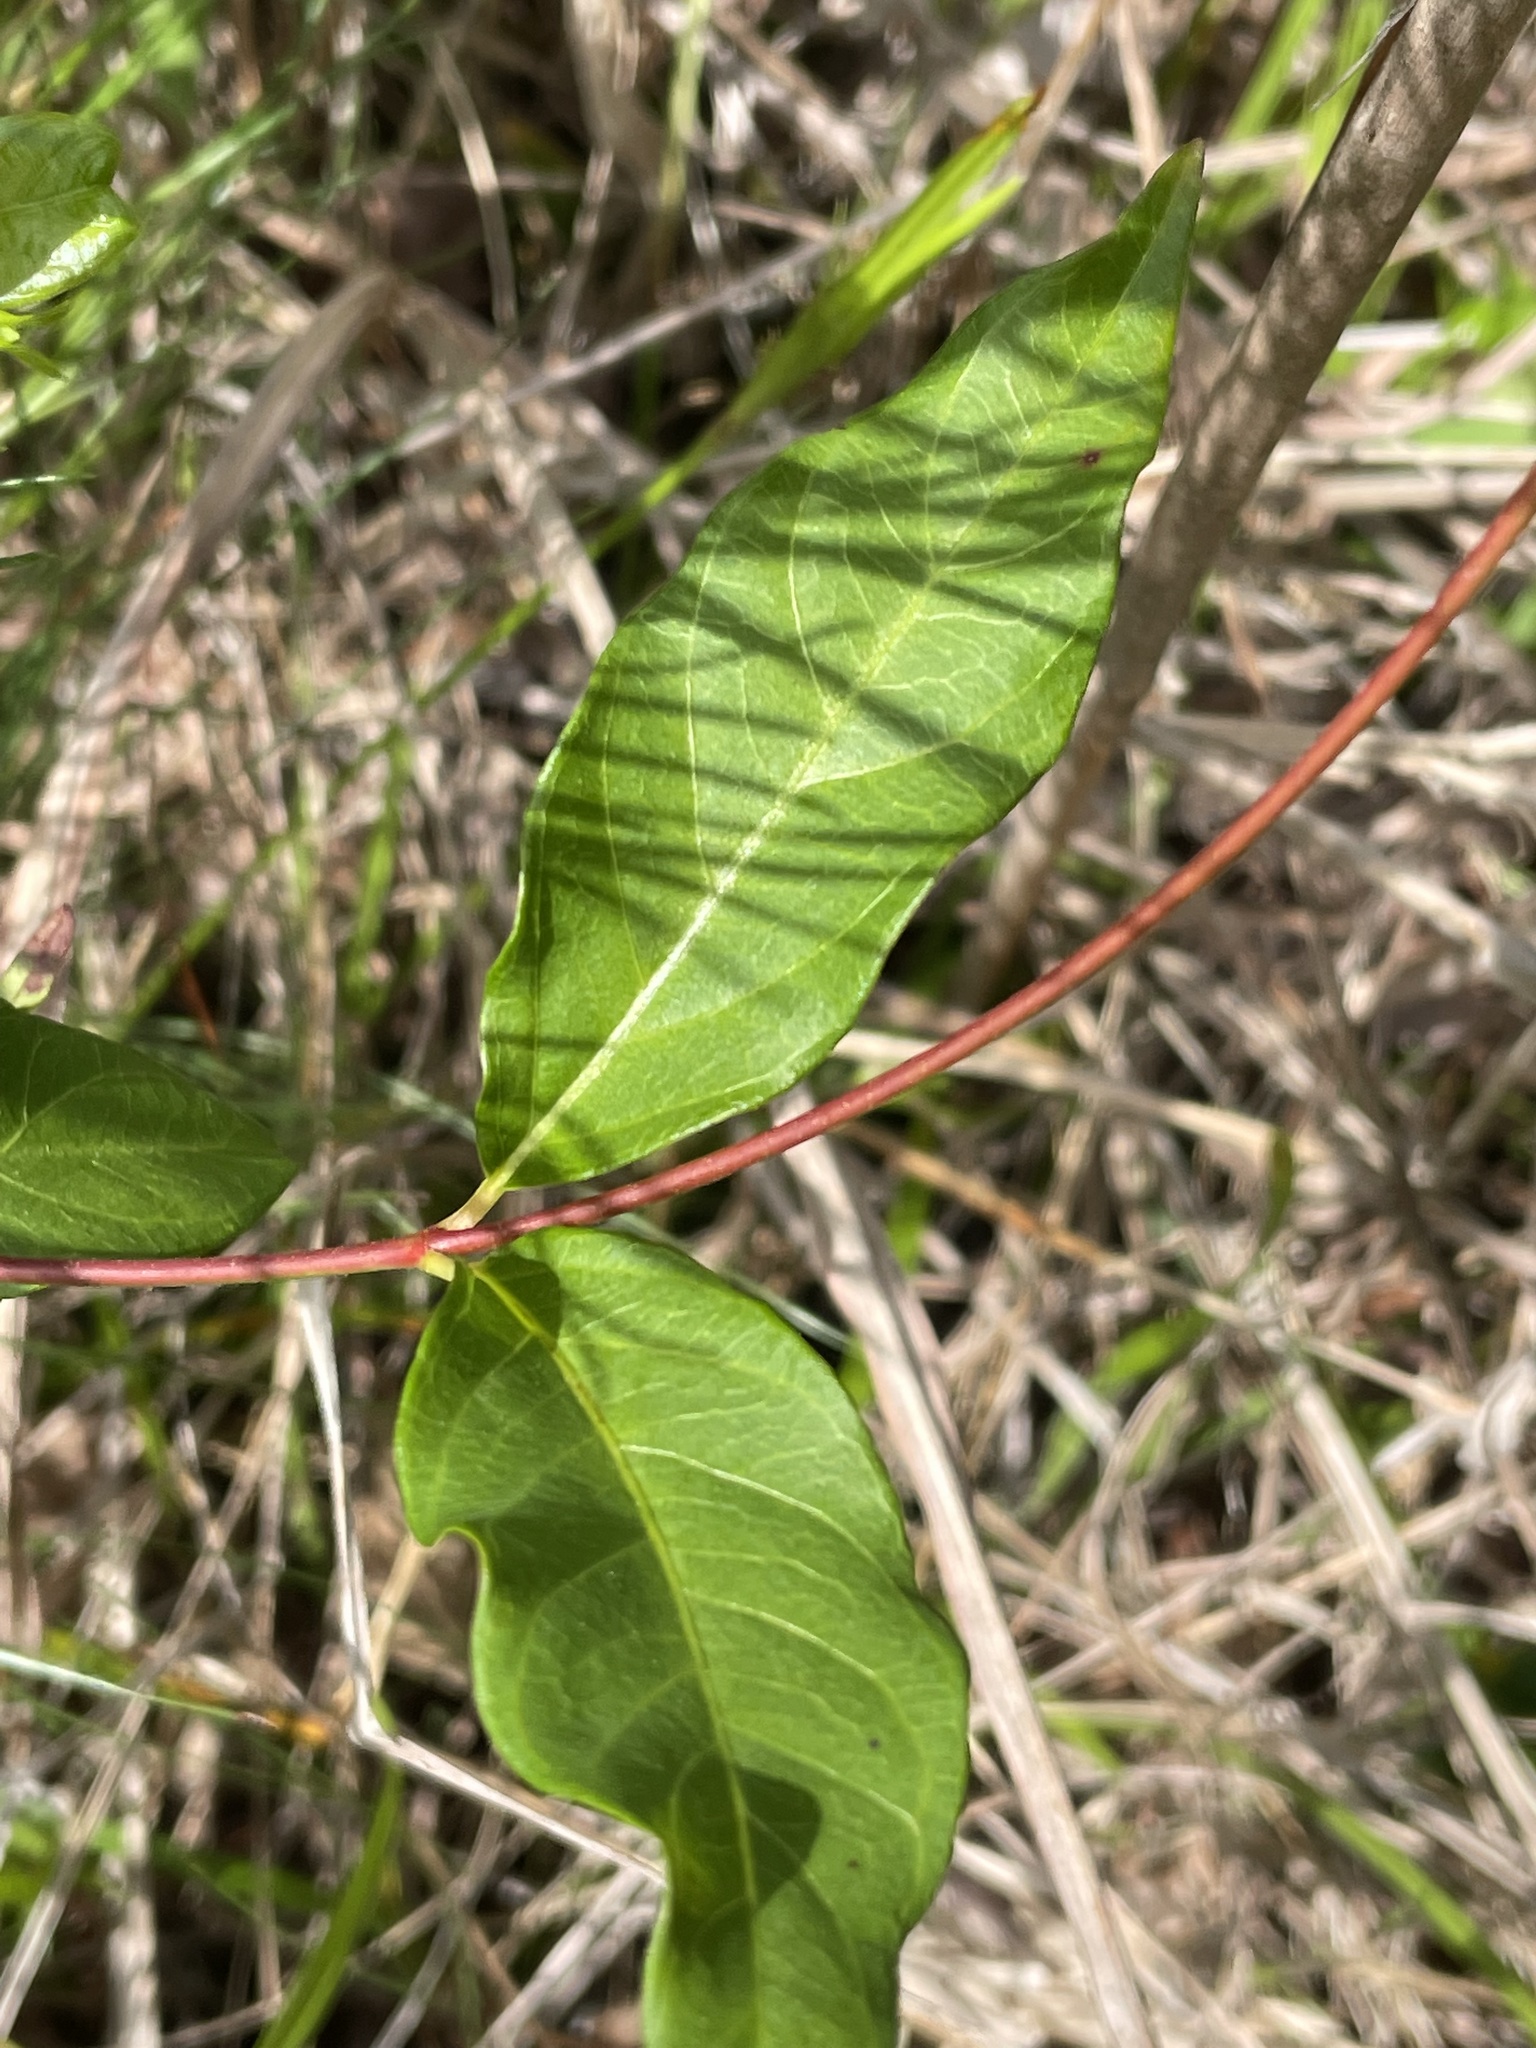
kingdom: Plantae
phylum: Tracheophyta
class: Magnoliopsida
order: Gentianales
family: Apocynaceae
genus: Thyrsanthella
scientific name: Thyrsanthella difformis
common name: Climbing dogbane
